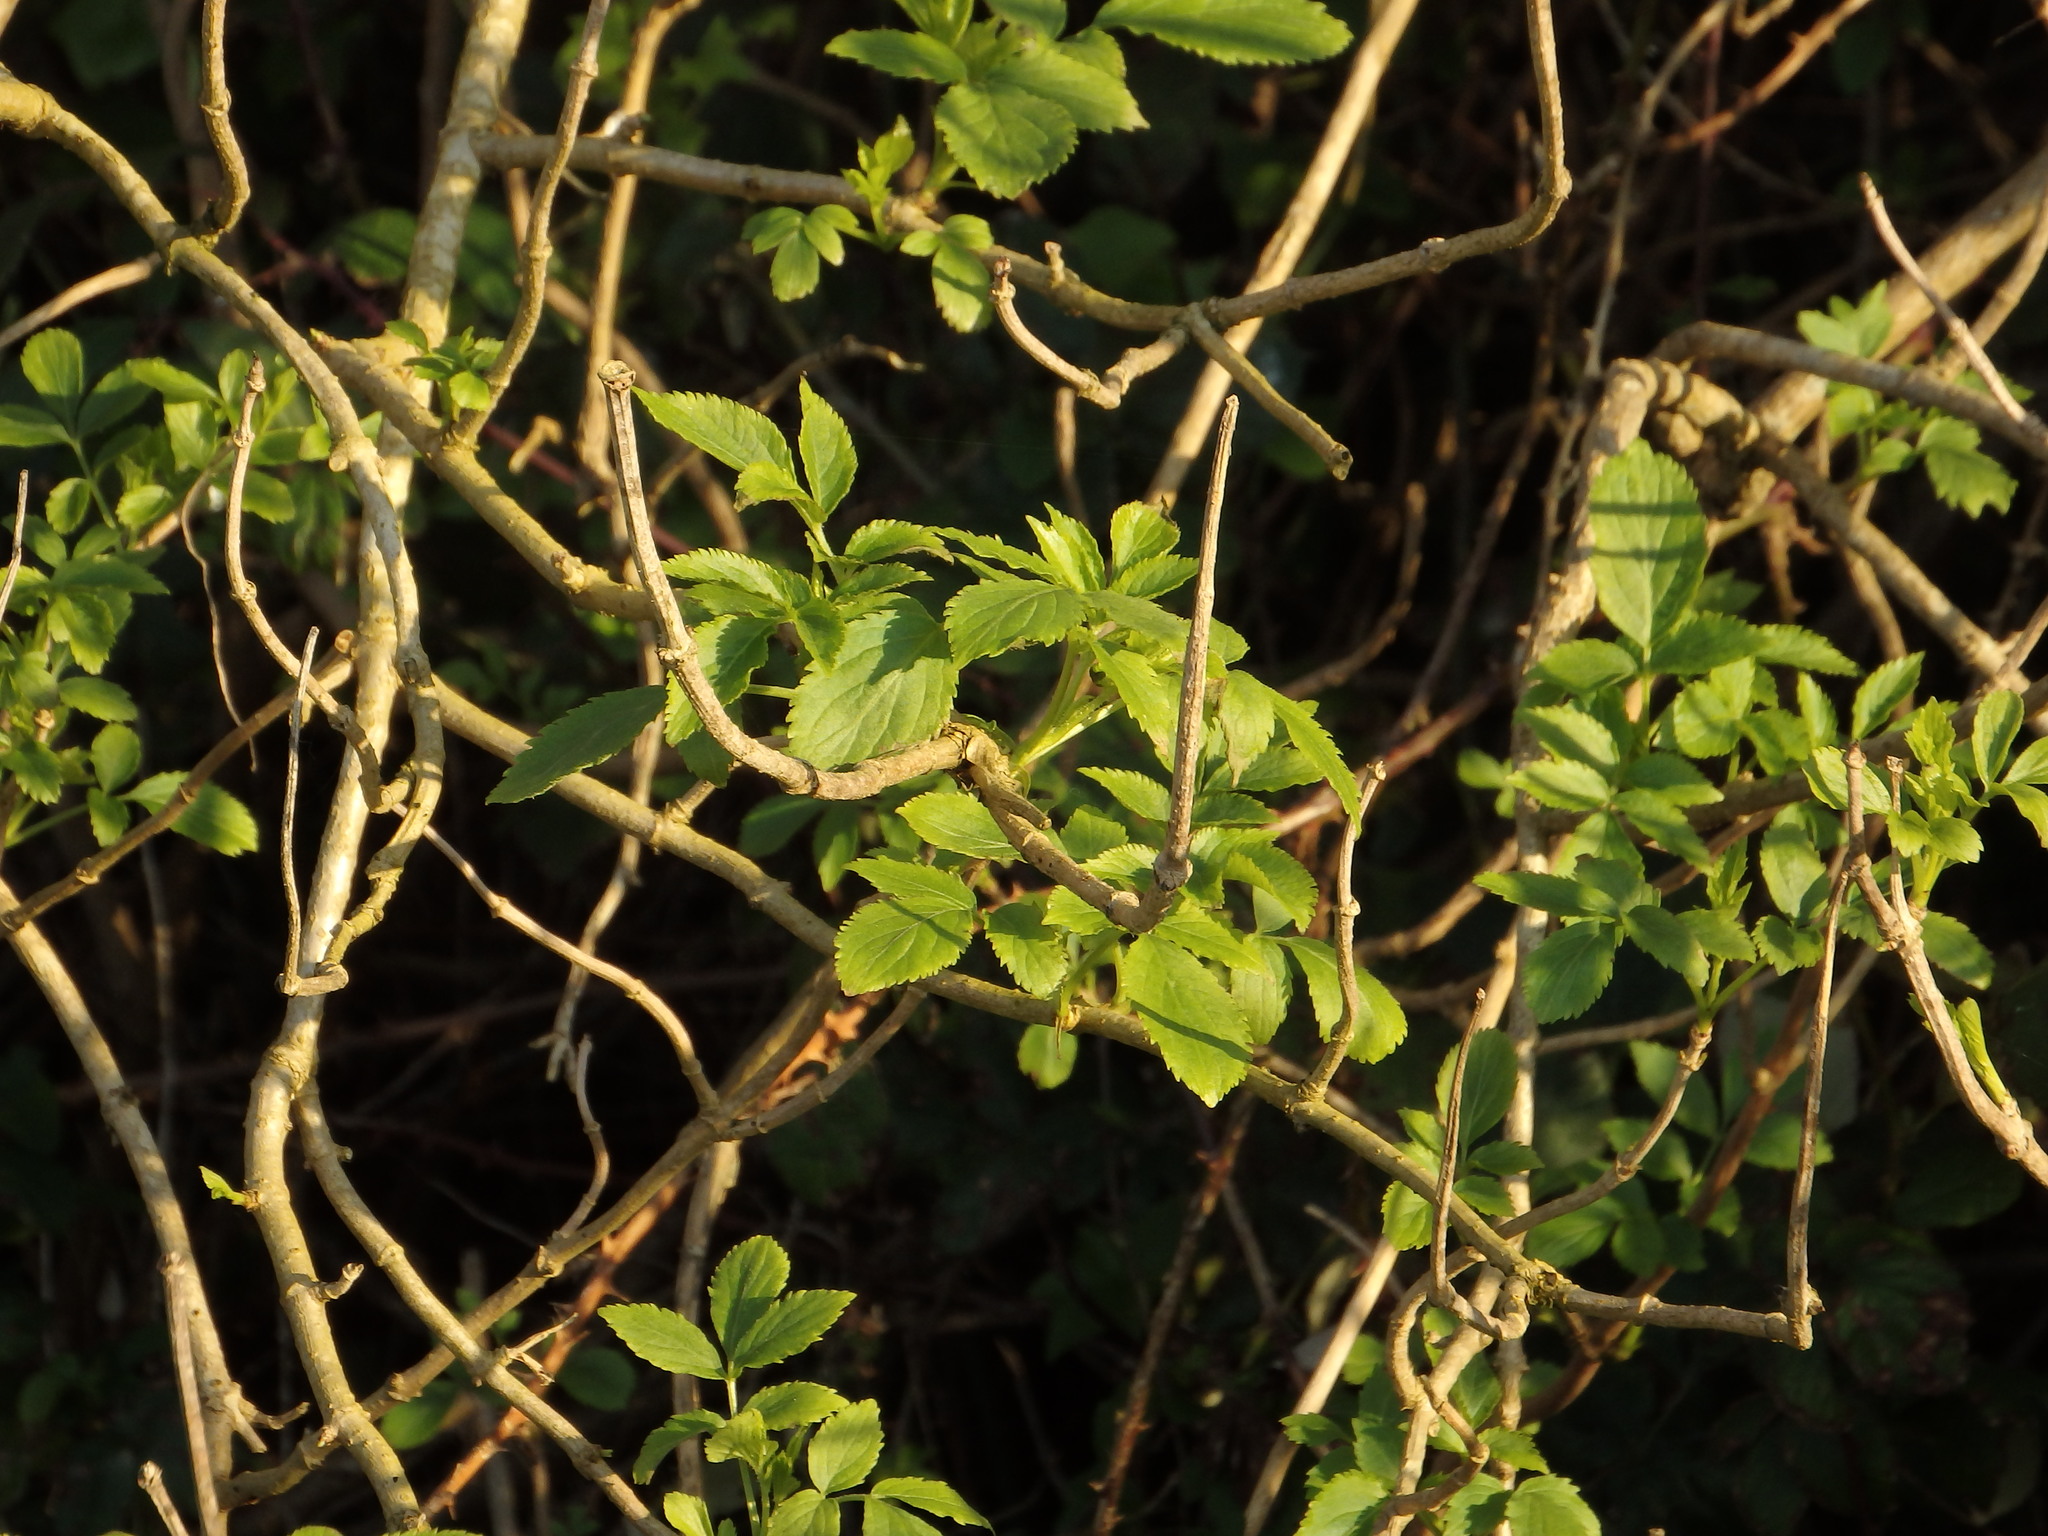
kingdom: Plantae
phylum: Tracheophyta
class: Magnoliopsida
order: Dipsacales
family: Viburnaceae
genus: Sambucus
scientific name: Sambucus nigra
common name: Elder
